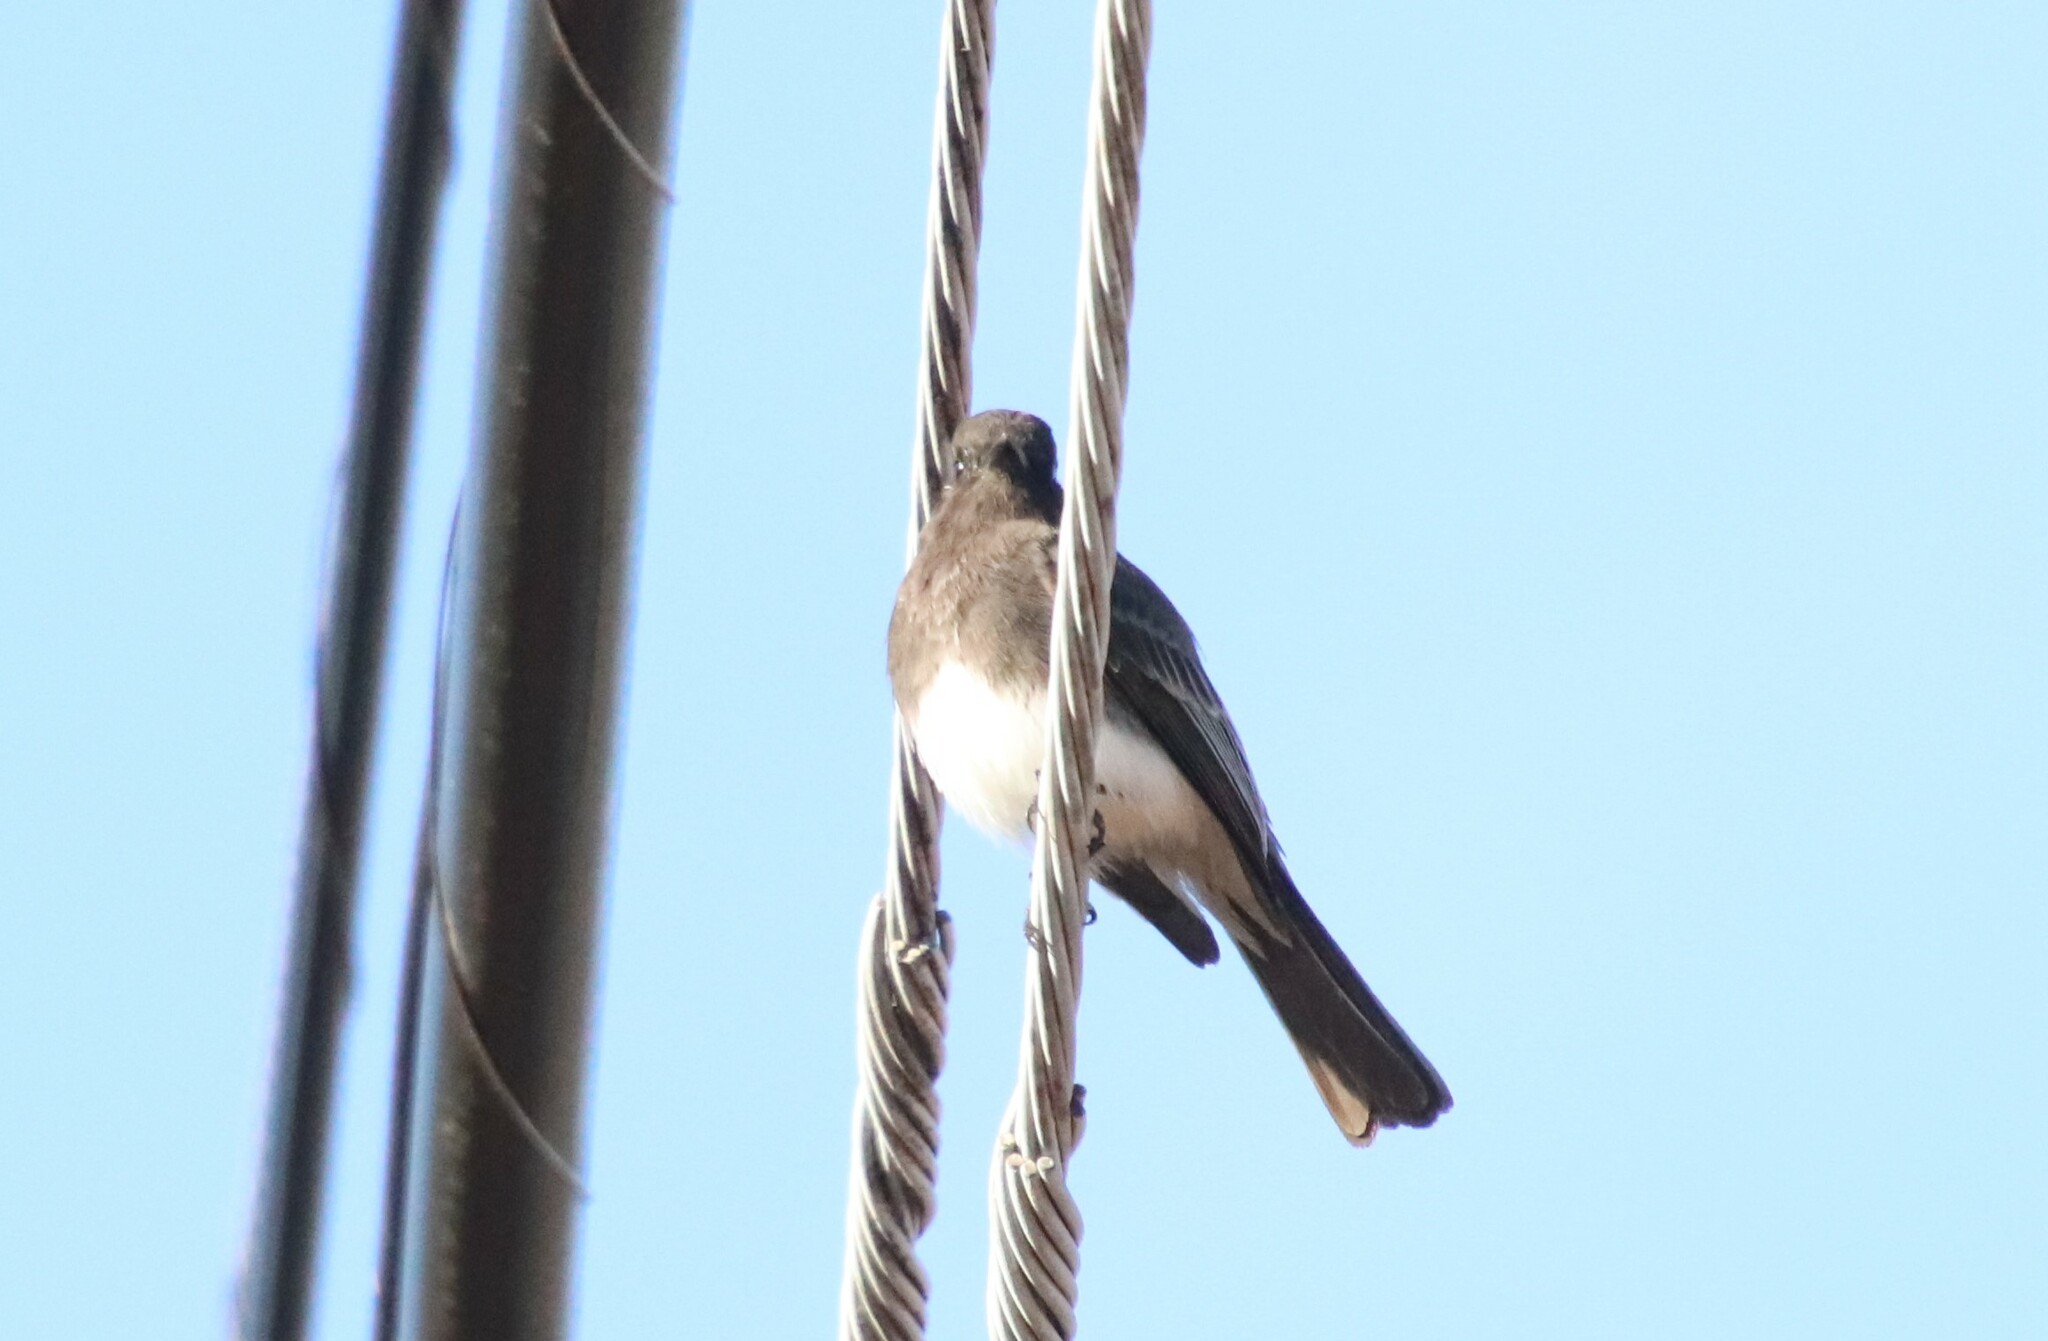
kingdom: Animalia
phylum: Chordata
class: Aves
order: Passeriformes
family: Tyrannidae
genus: Sayornis
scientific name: Sayornis nigricans
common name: Black phoebe
